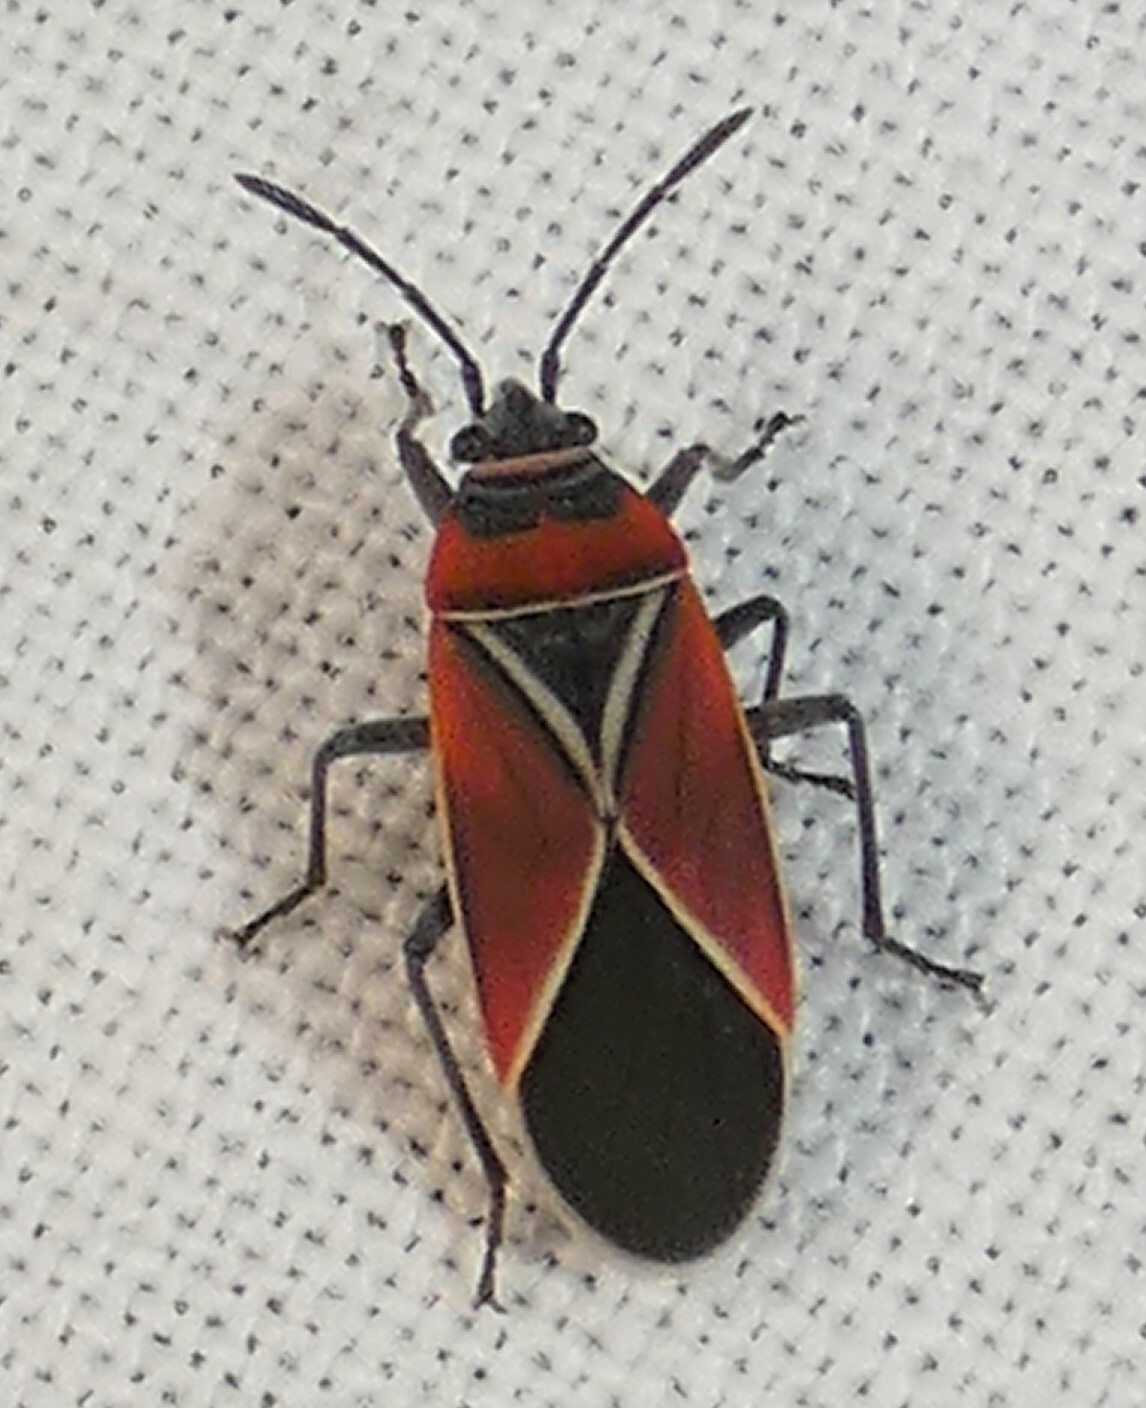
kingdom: Animalia
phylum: Arthropoda
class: Insecta
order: Hemiptera
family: Lygaeidae
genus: Neacoryphus
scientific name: Neacoryphus bicrucis
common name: Lygaeid bug
